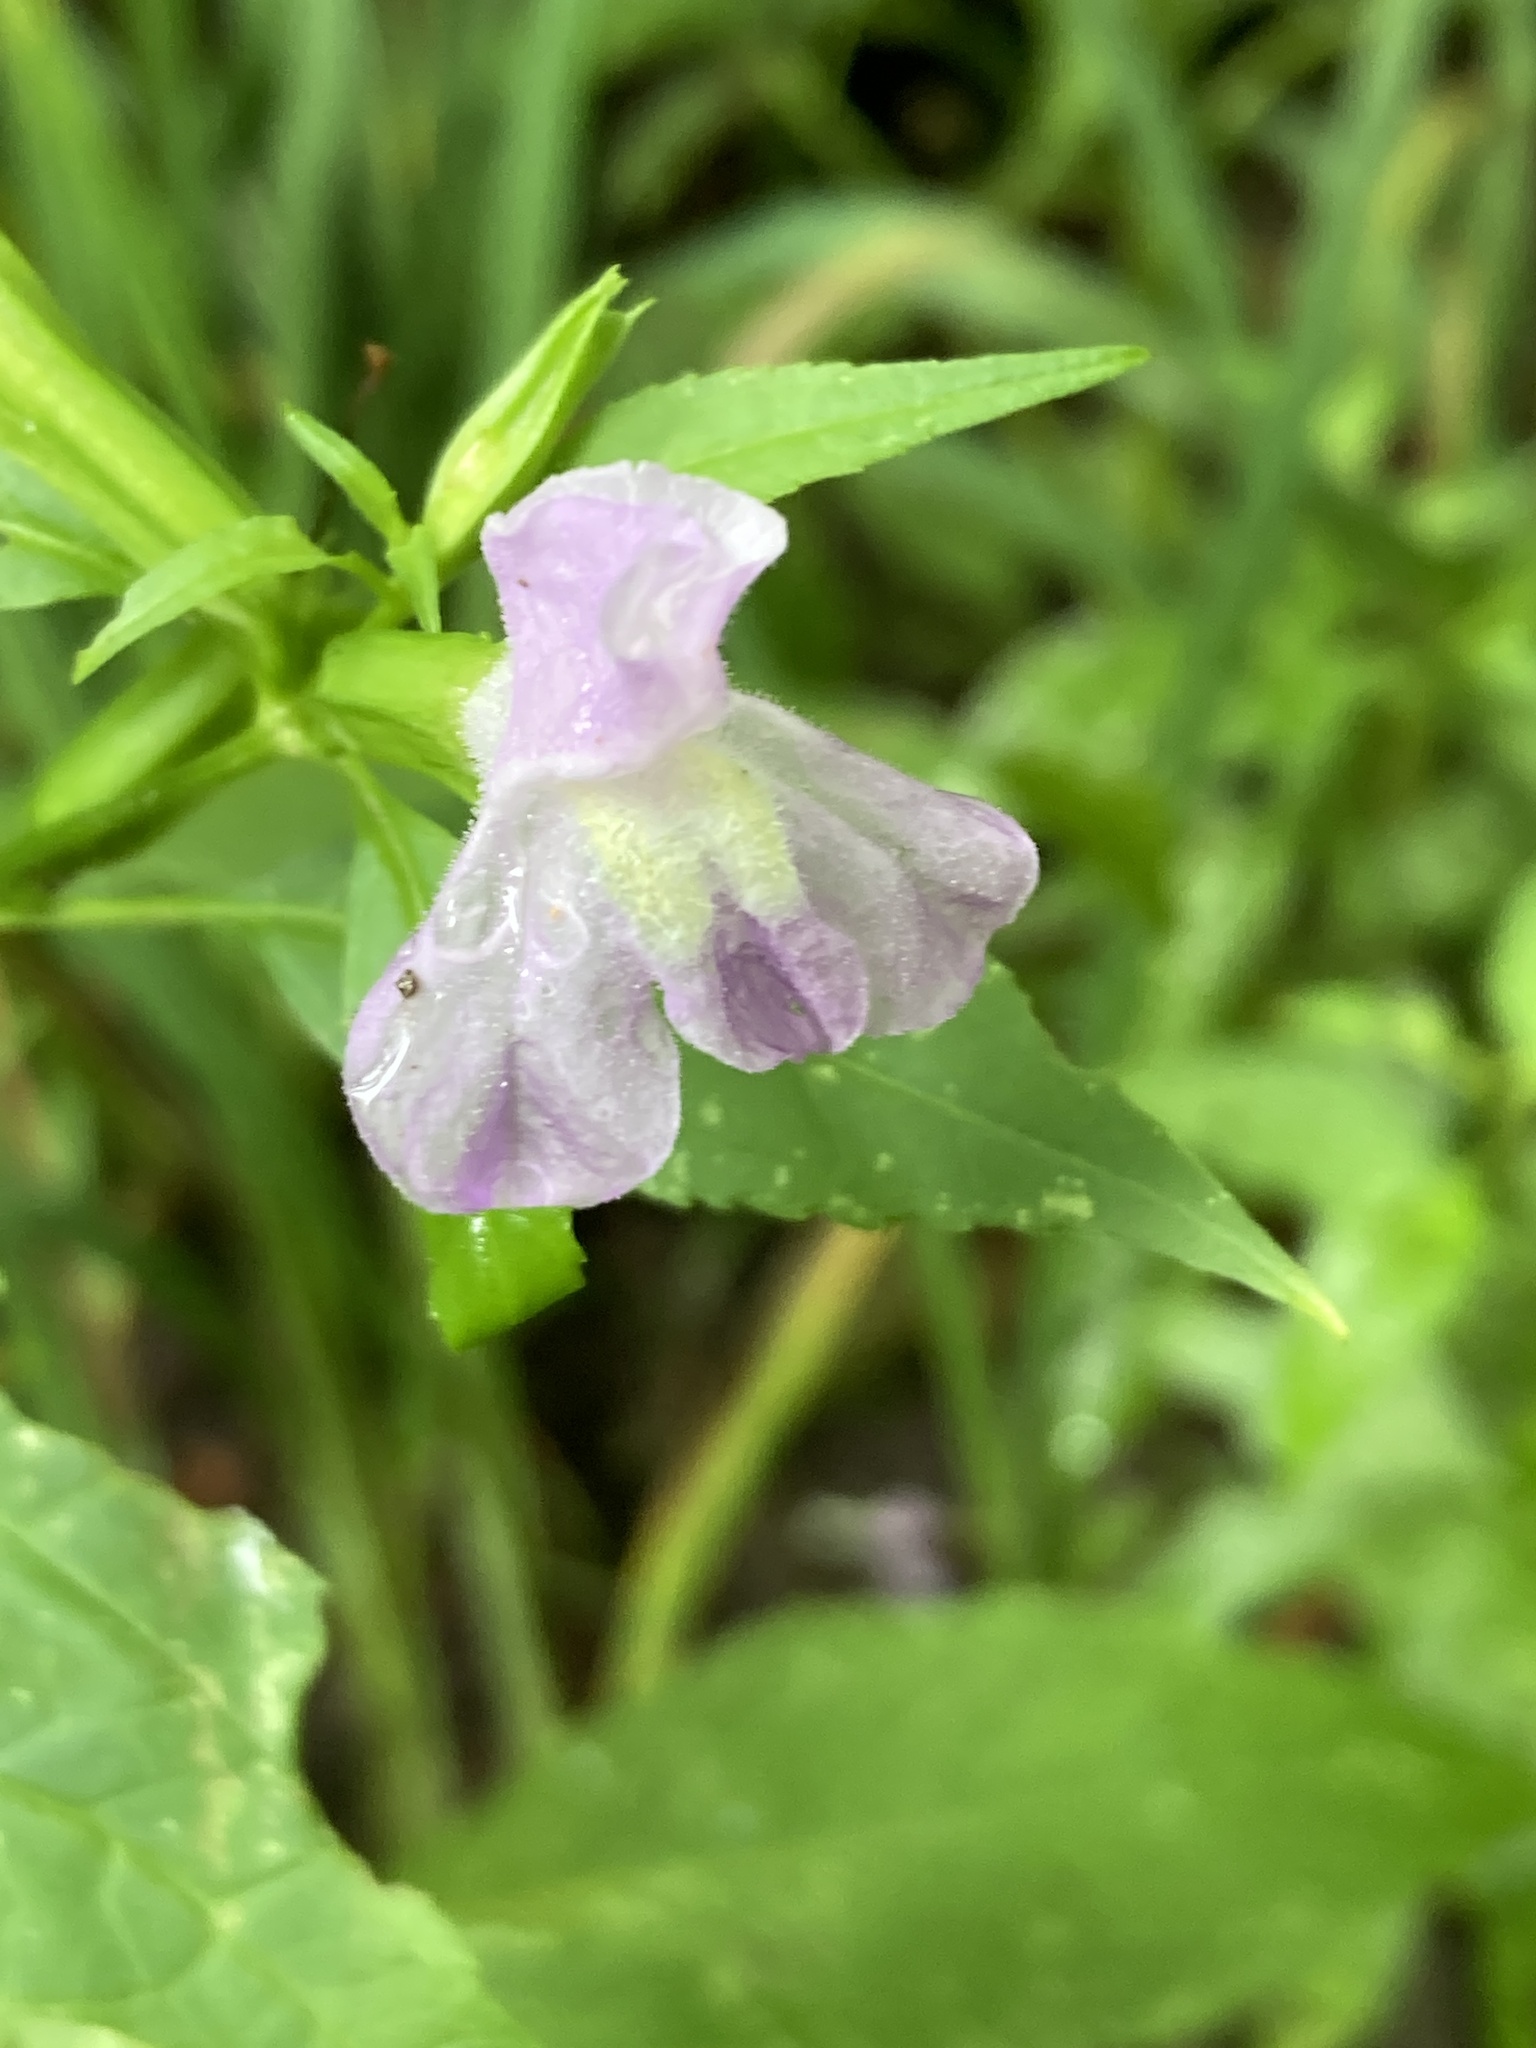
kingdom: Plantae
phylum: Tracheophyta
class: Magnoliopsida
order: Lamiales
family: Phrymaceae
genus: Mimulus
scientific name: Mimulus alatus
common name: Sharp-wing monkey-flower
